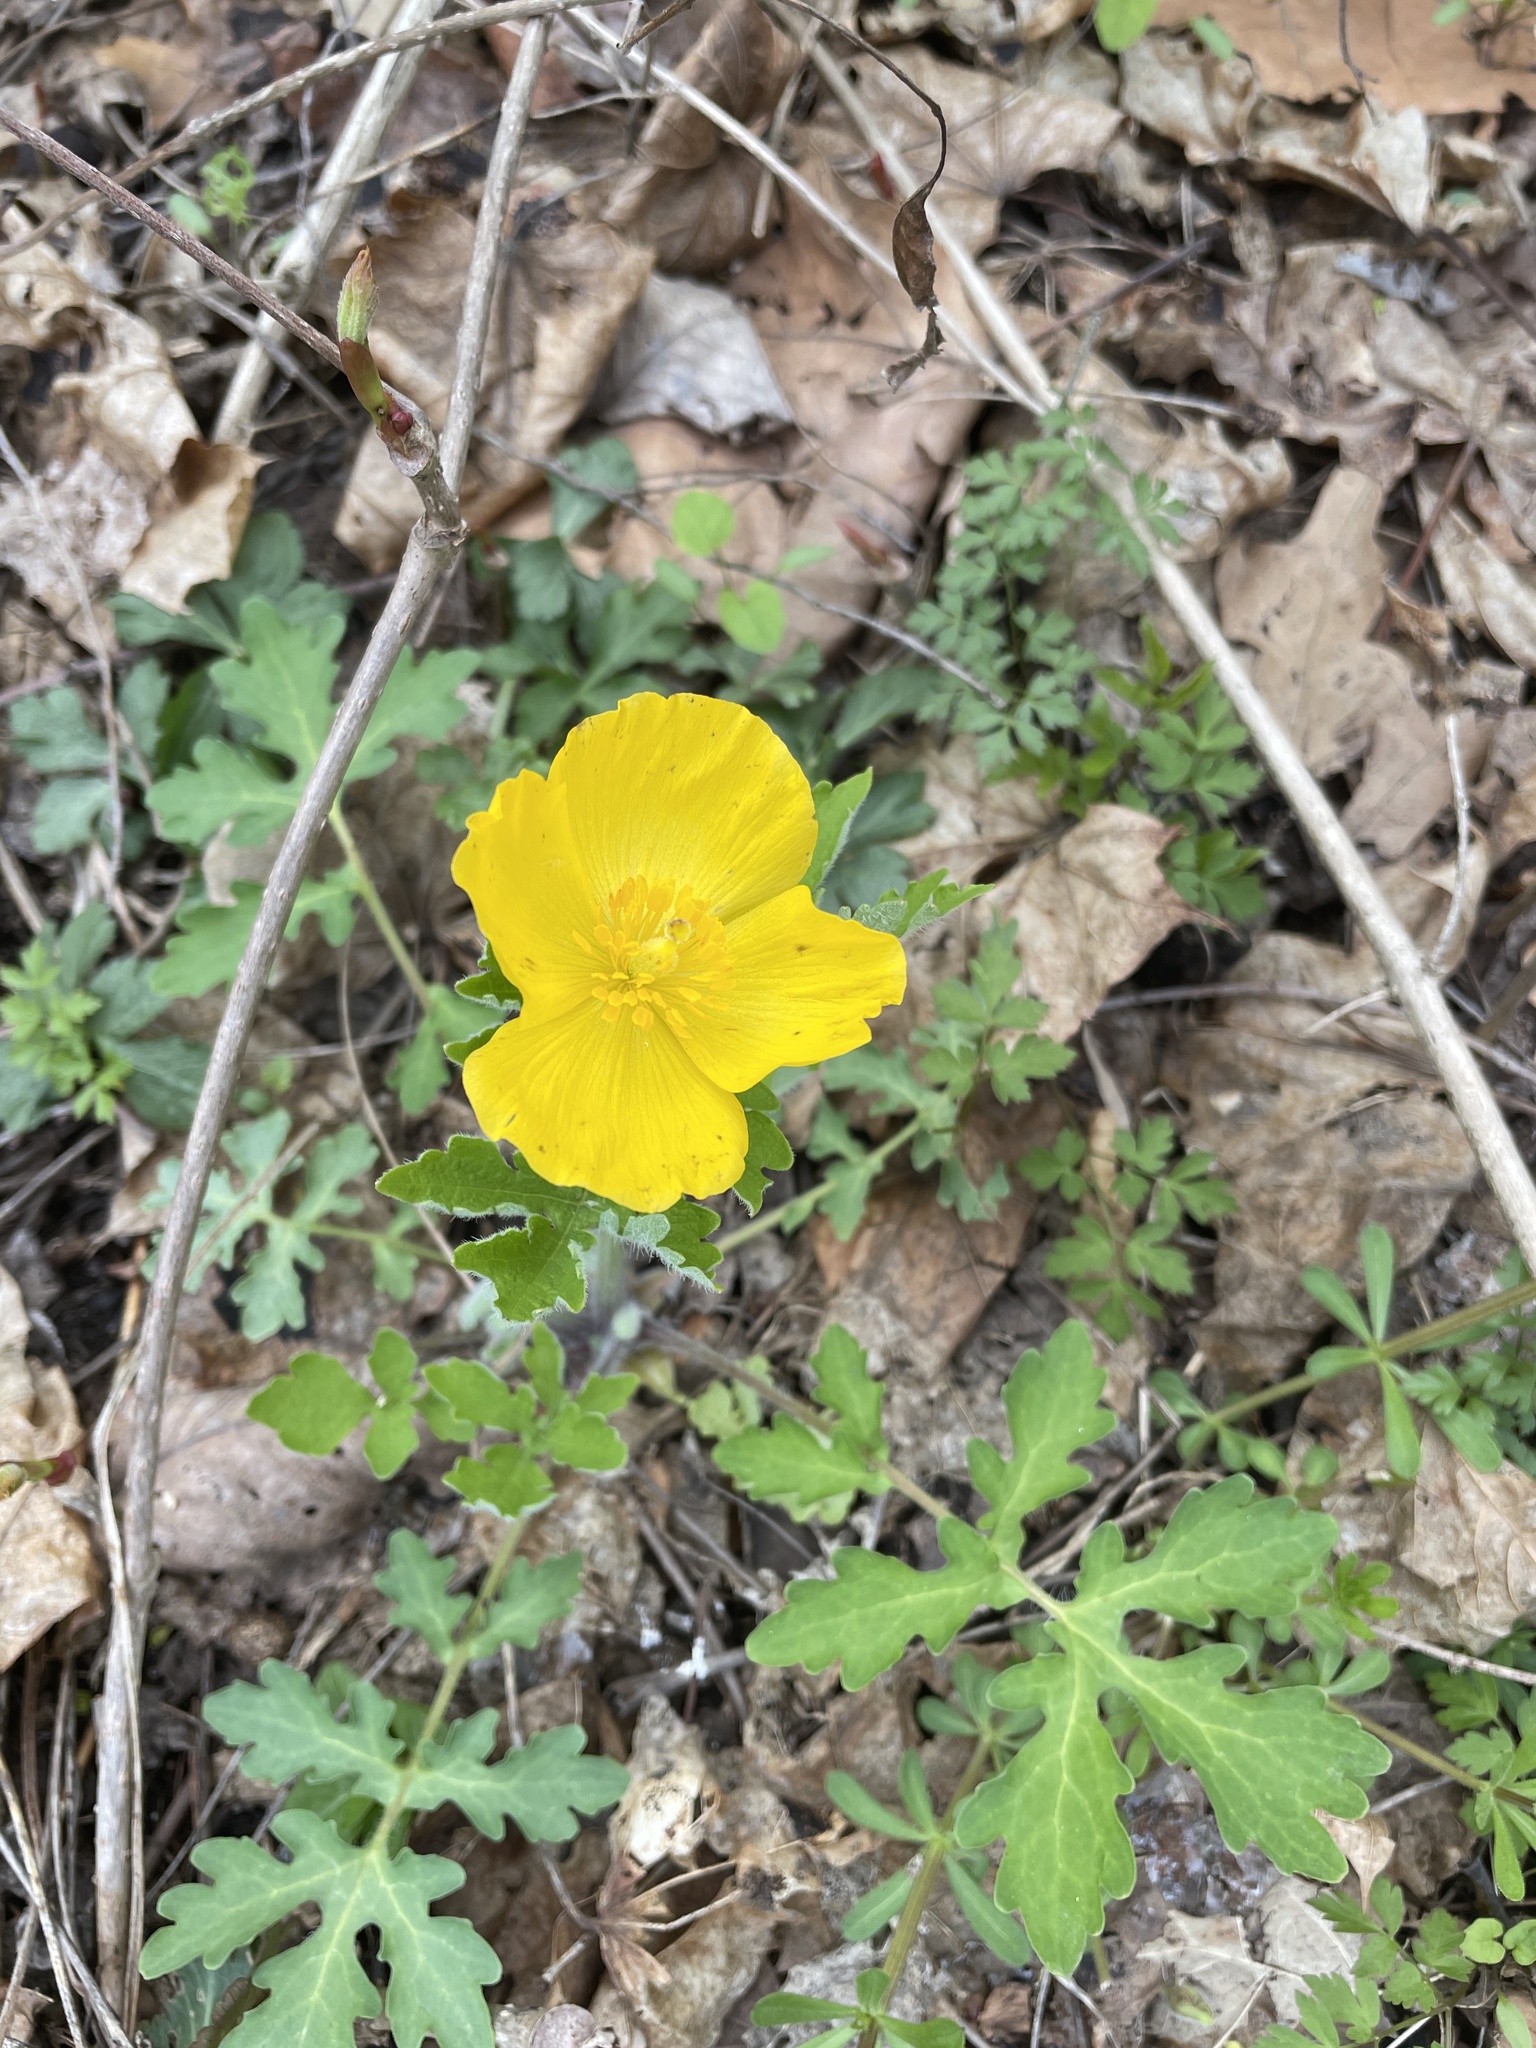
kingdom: Plantae
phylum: Tracheophyta
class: Magnoliopsida
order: Ranunculales
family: Papaveraceae
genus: Stylophorum
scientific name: Stylophorum diphyllum
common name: Celandine poppy
